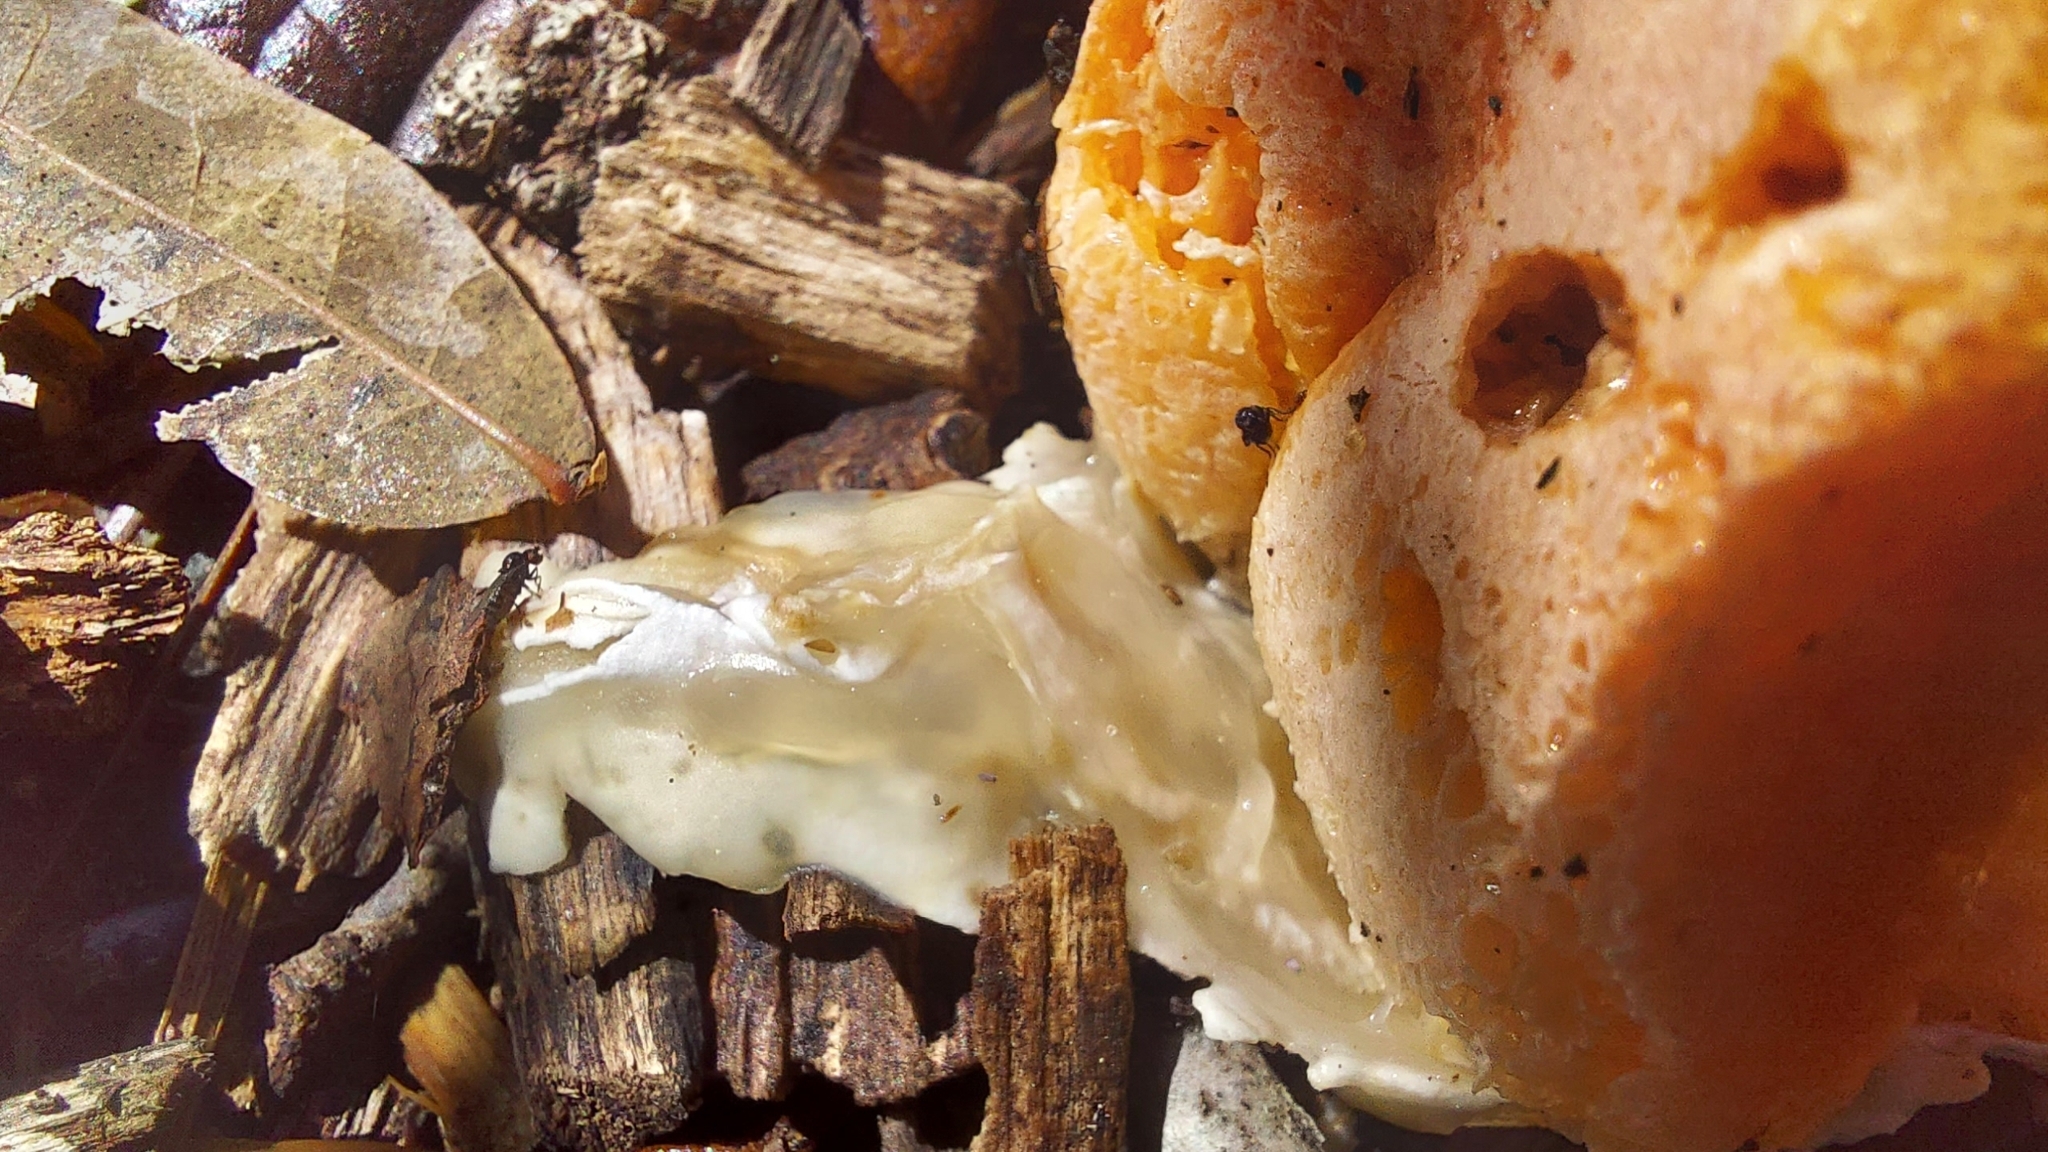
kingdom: Fungi
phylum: Basidiomycota
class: Agaricomycetes
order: Phallales
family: Phallaceae
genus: Clathrus
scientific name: Clathrus columnatus
